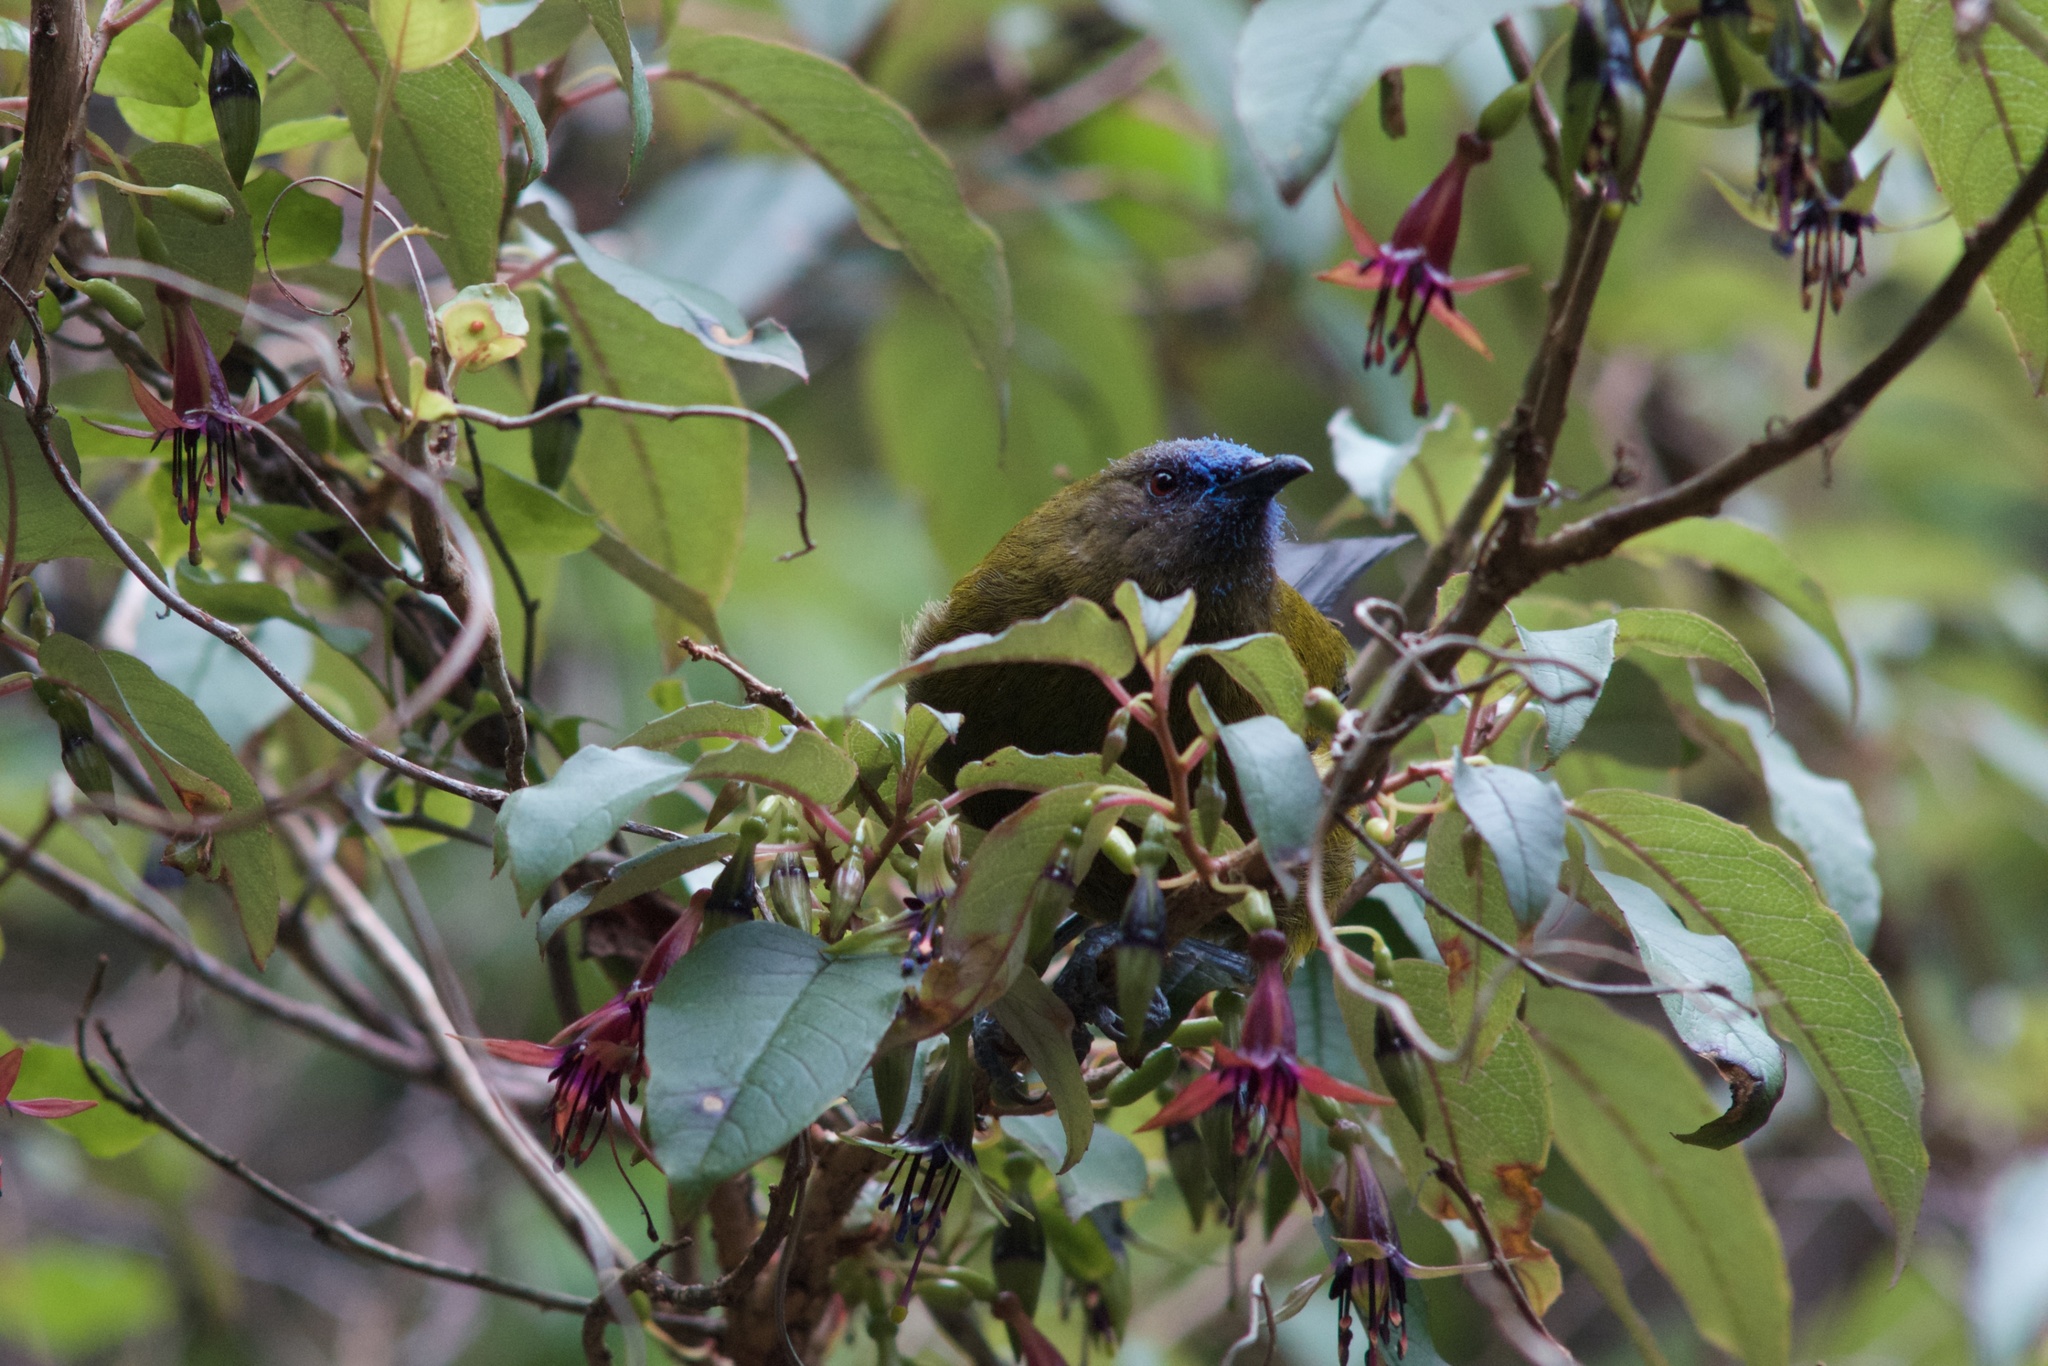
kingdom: Animalia
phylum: Chordata
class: Aves
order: Passeriformes
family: Meliphagidae
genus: Anthornis
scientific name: Anthornis melanura
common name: New zealand bellbird
